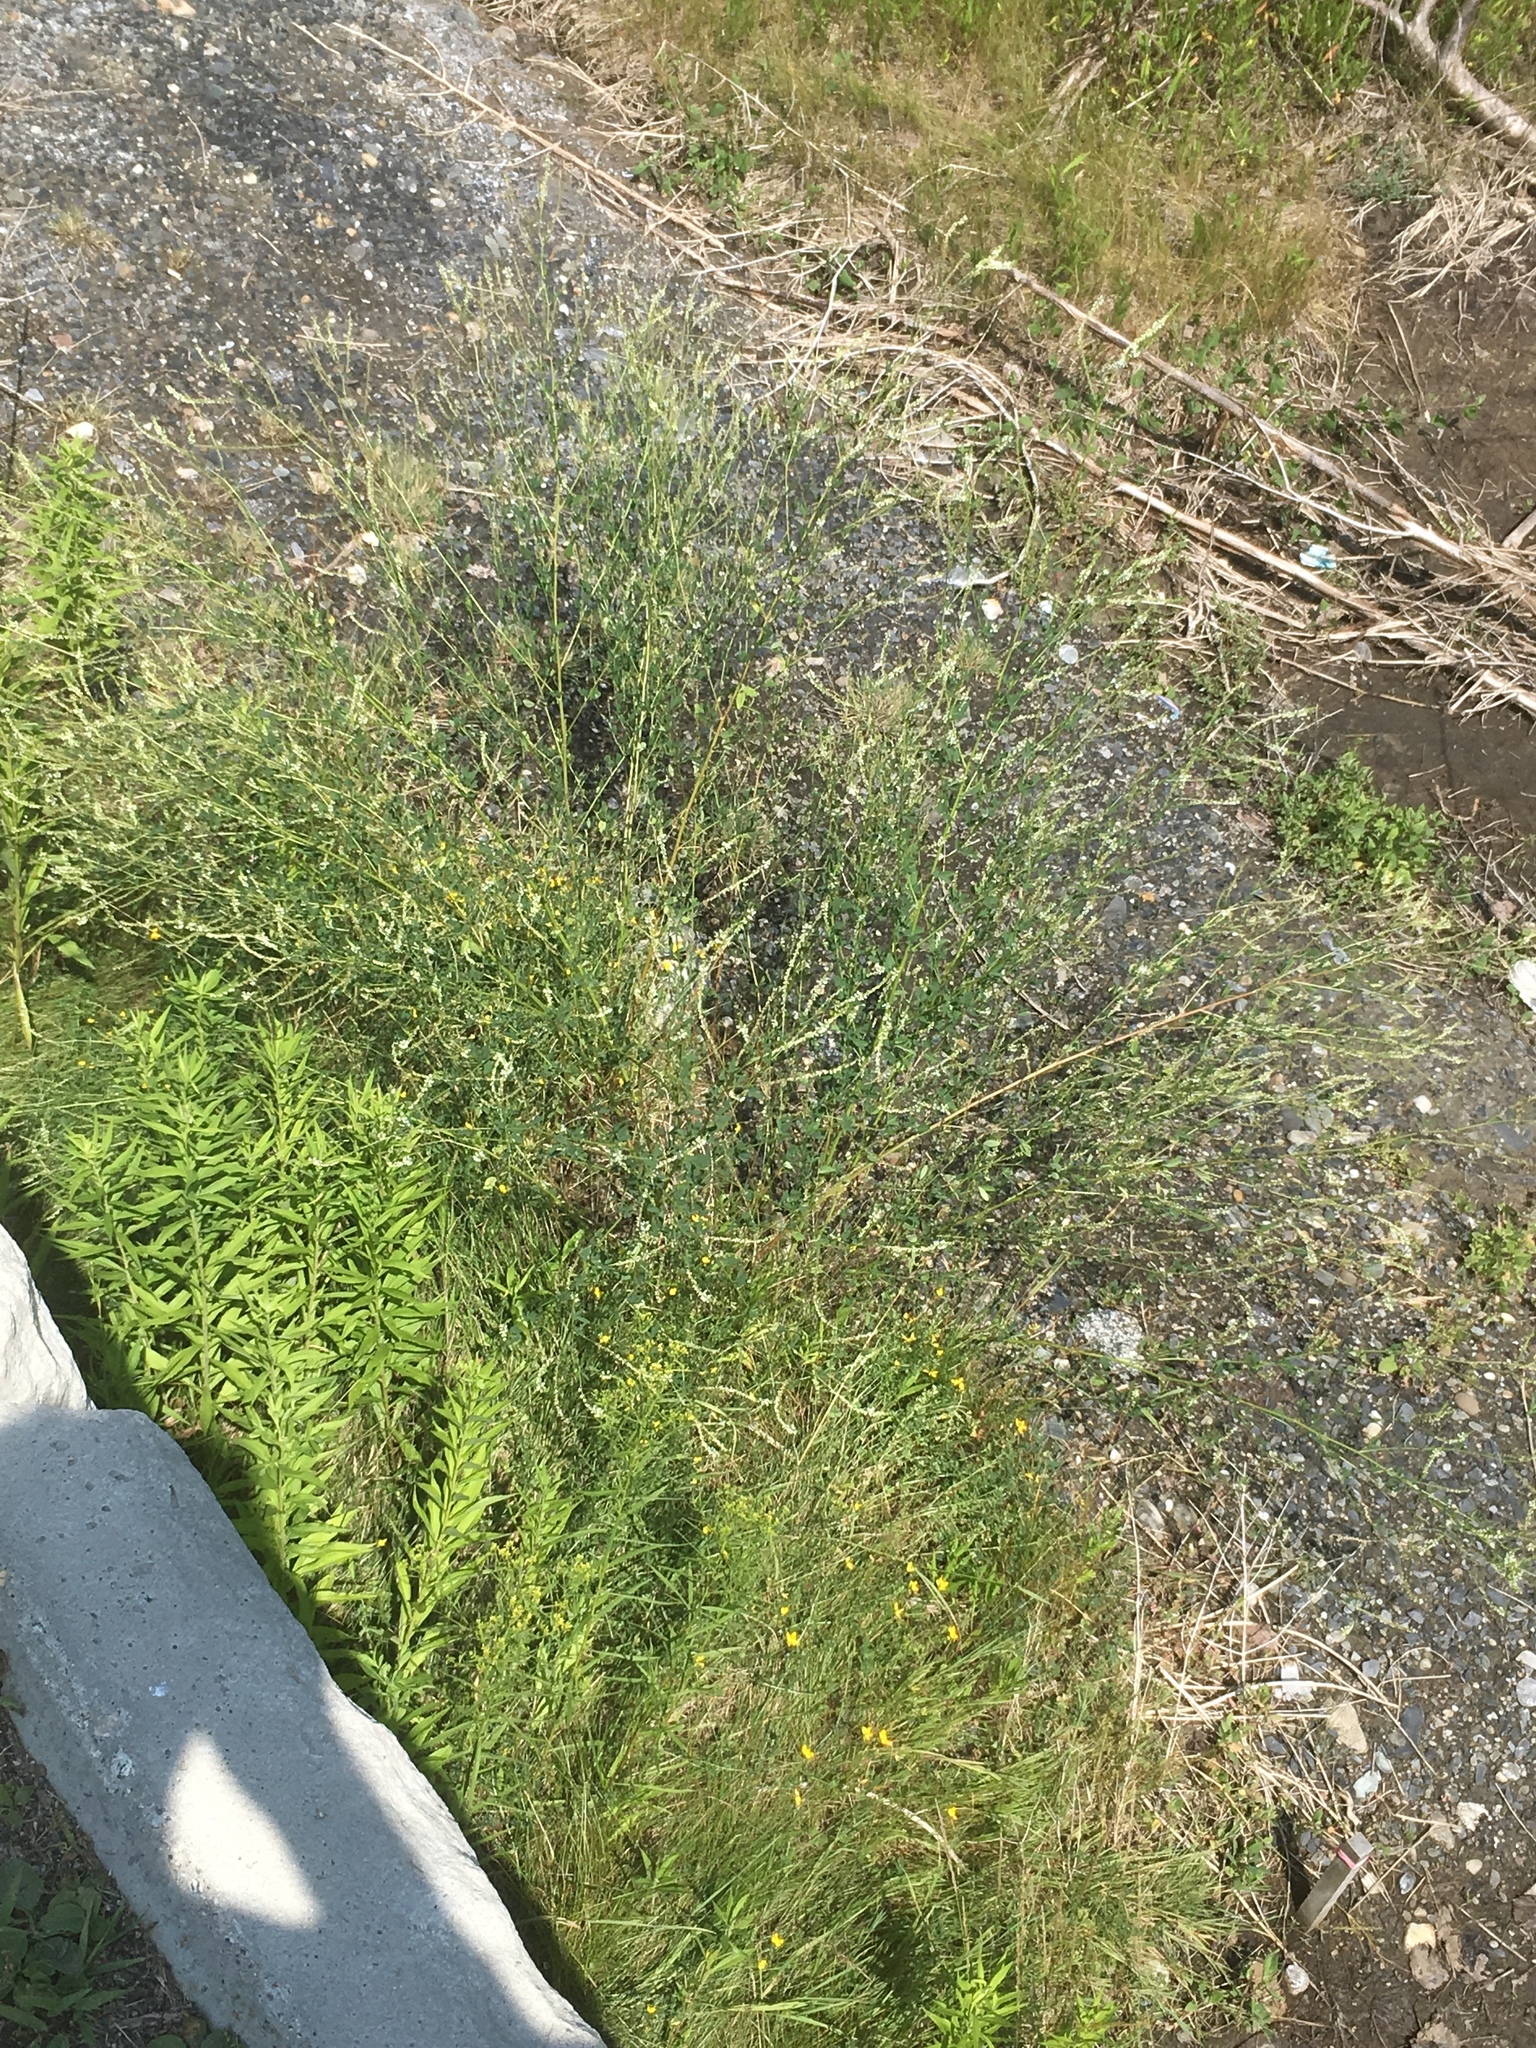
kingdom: Plantae
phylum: Tracheophyta
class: Magnoliopsida
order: Fabales
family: Fabaceae
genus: Melilotus
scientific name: Melilotus albus
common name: White melilot
